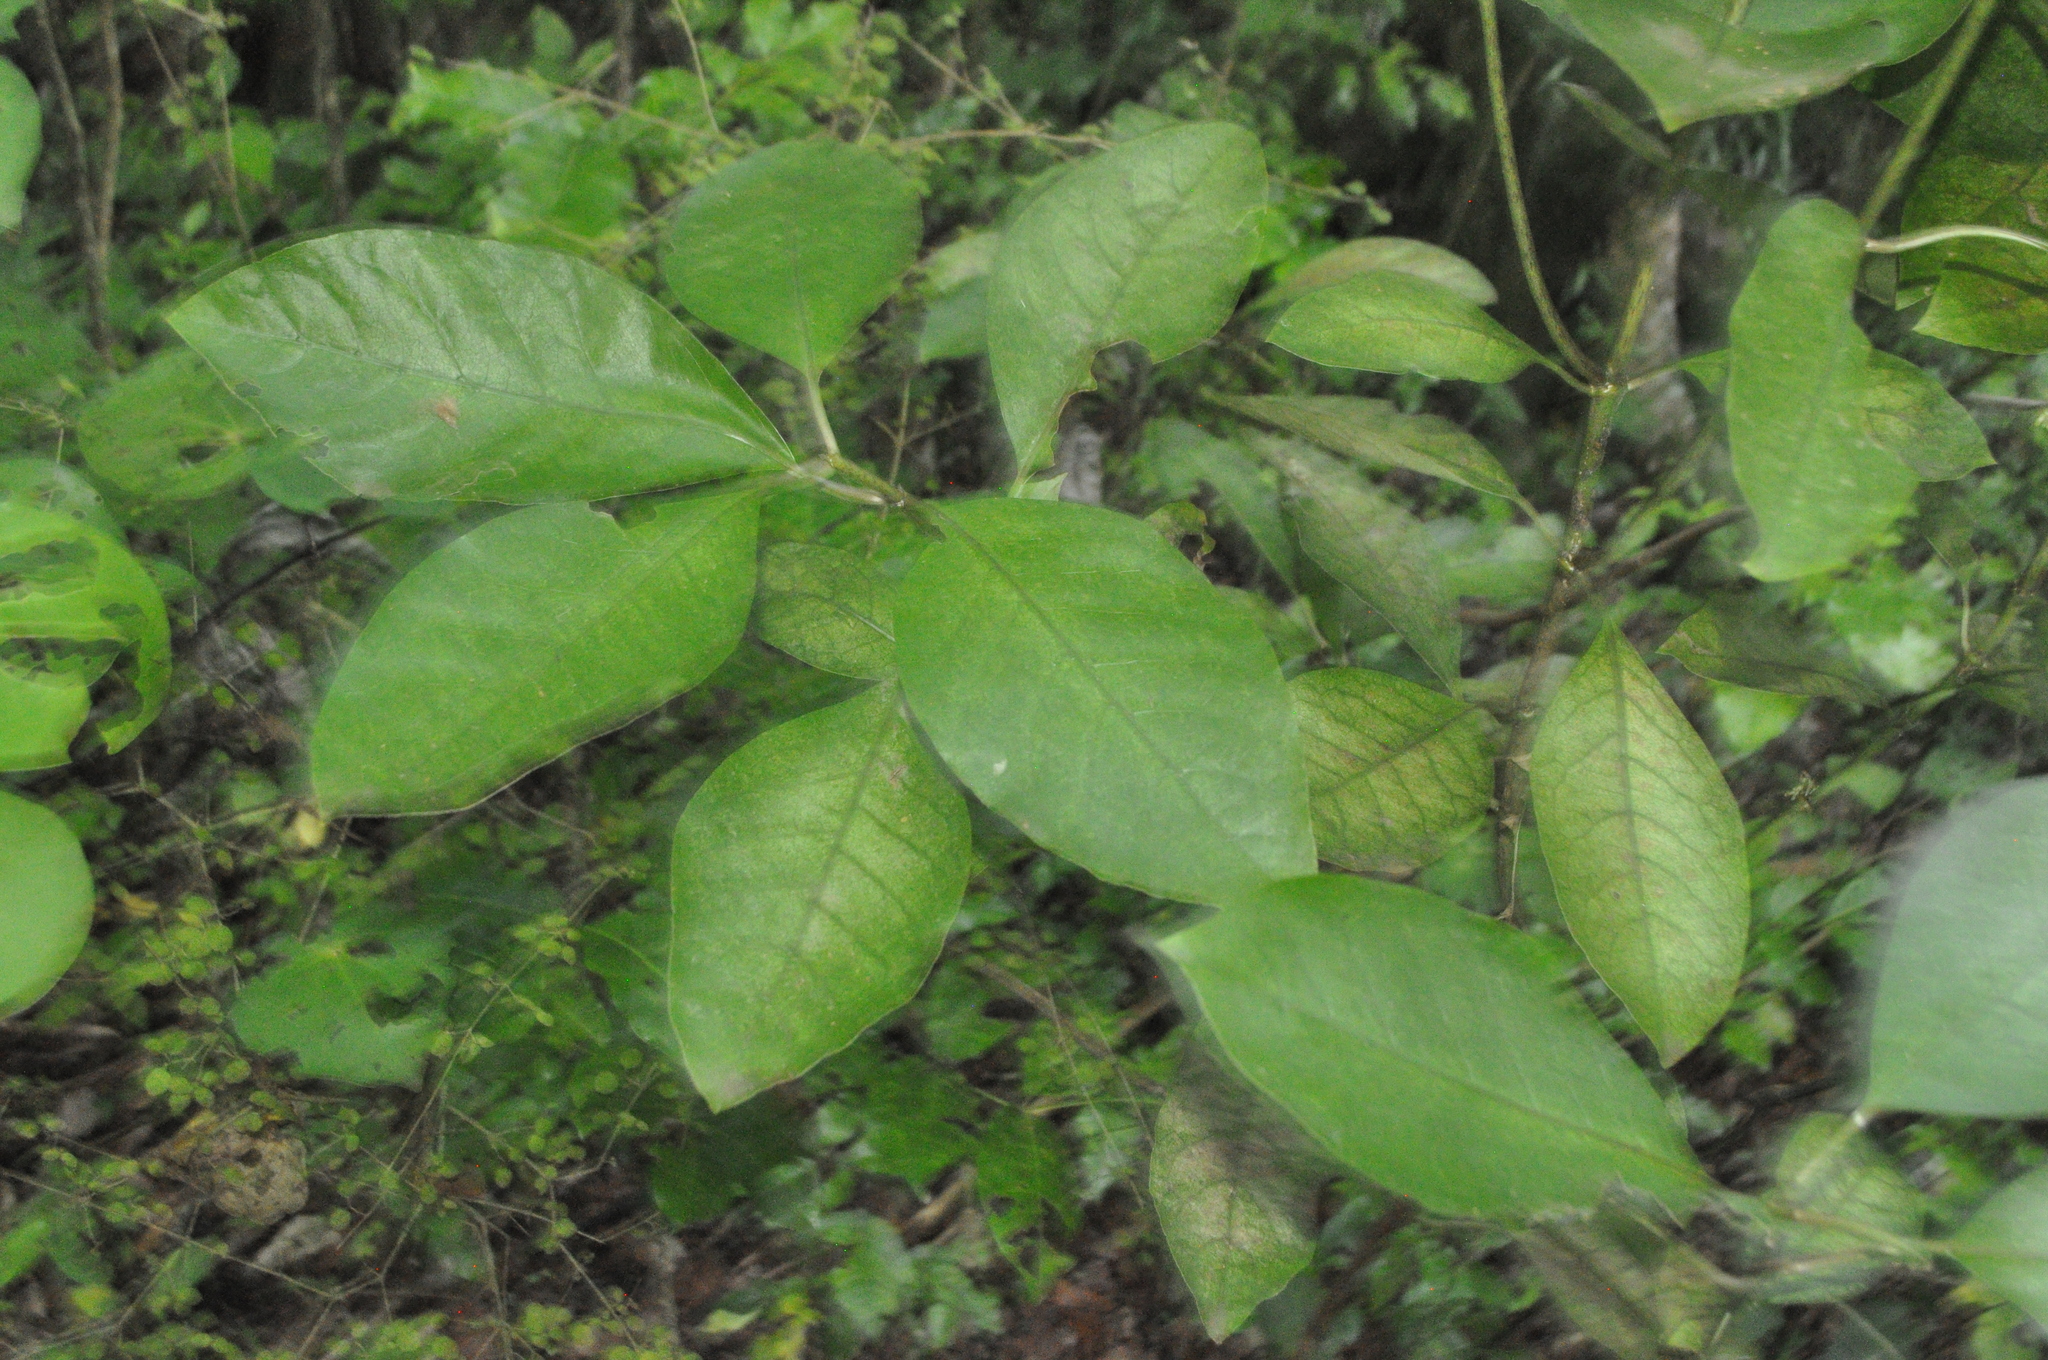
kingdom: Plantae
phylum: Tracheophyta
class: Magnoliopsida
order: Gentianales
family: Rubiaceae
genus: Coprosma
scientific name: Coprosma autumnalis
